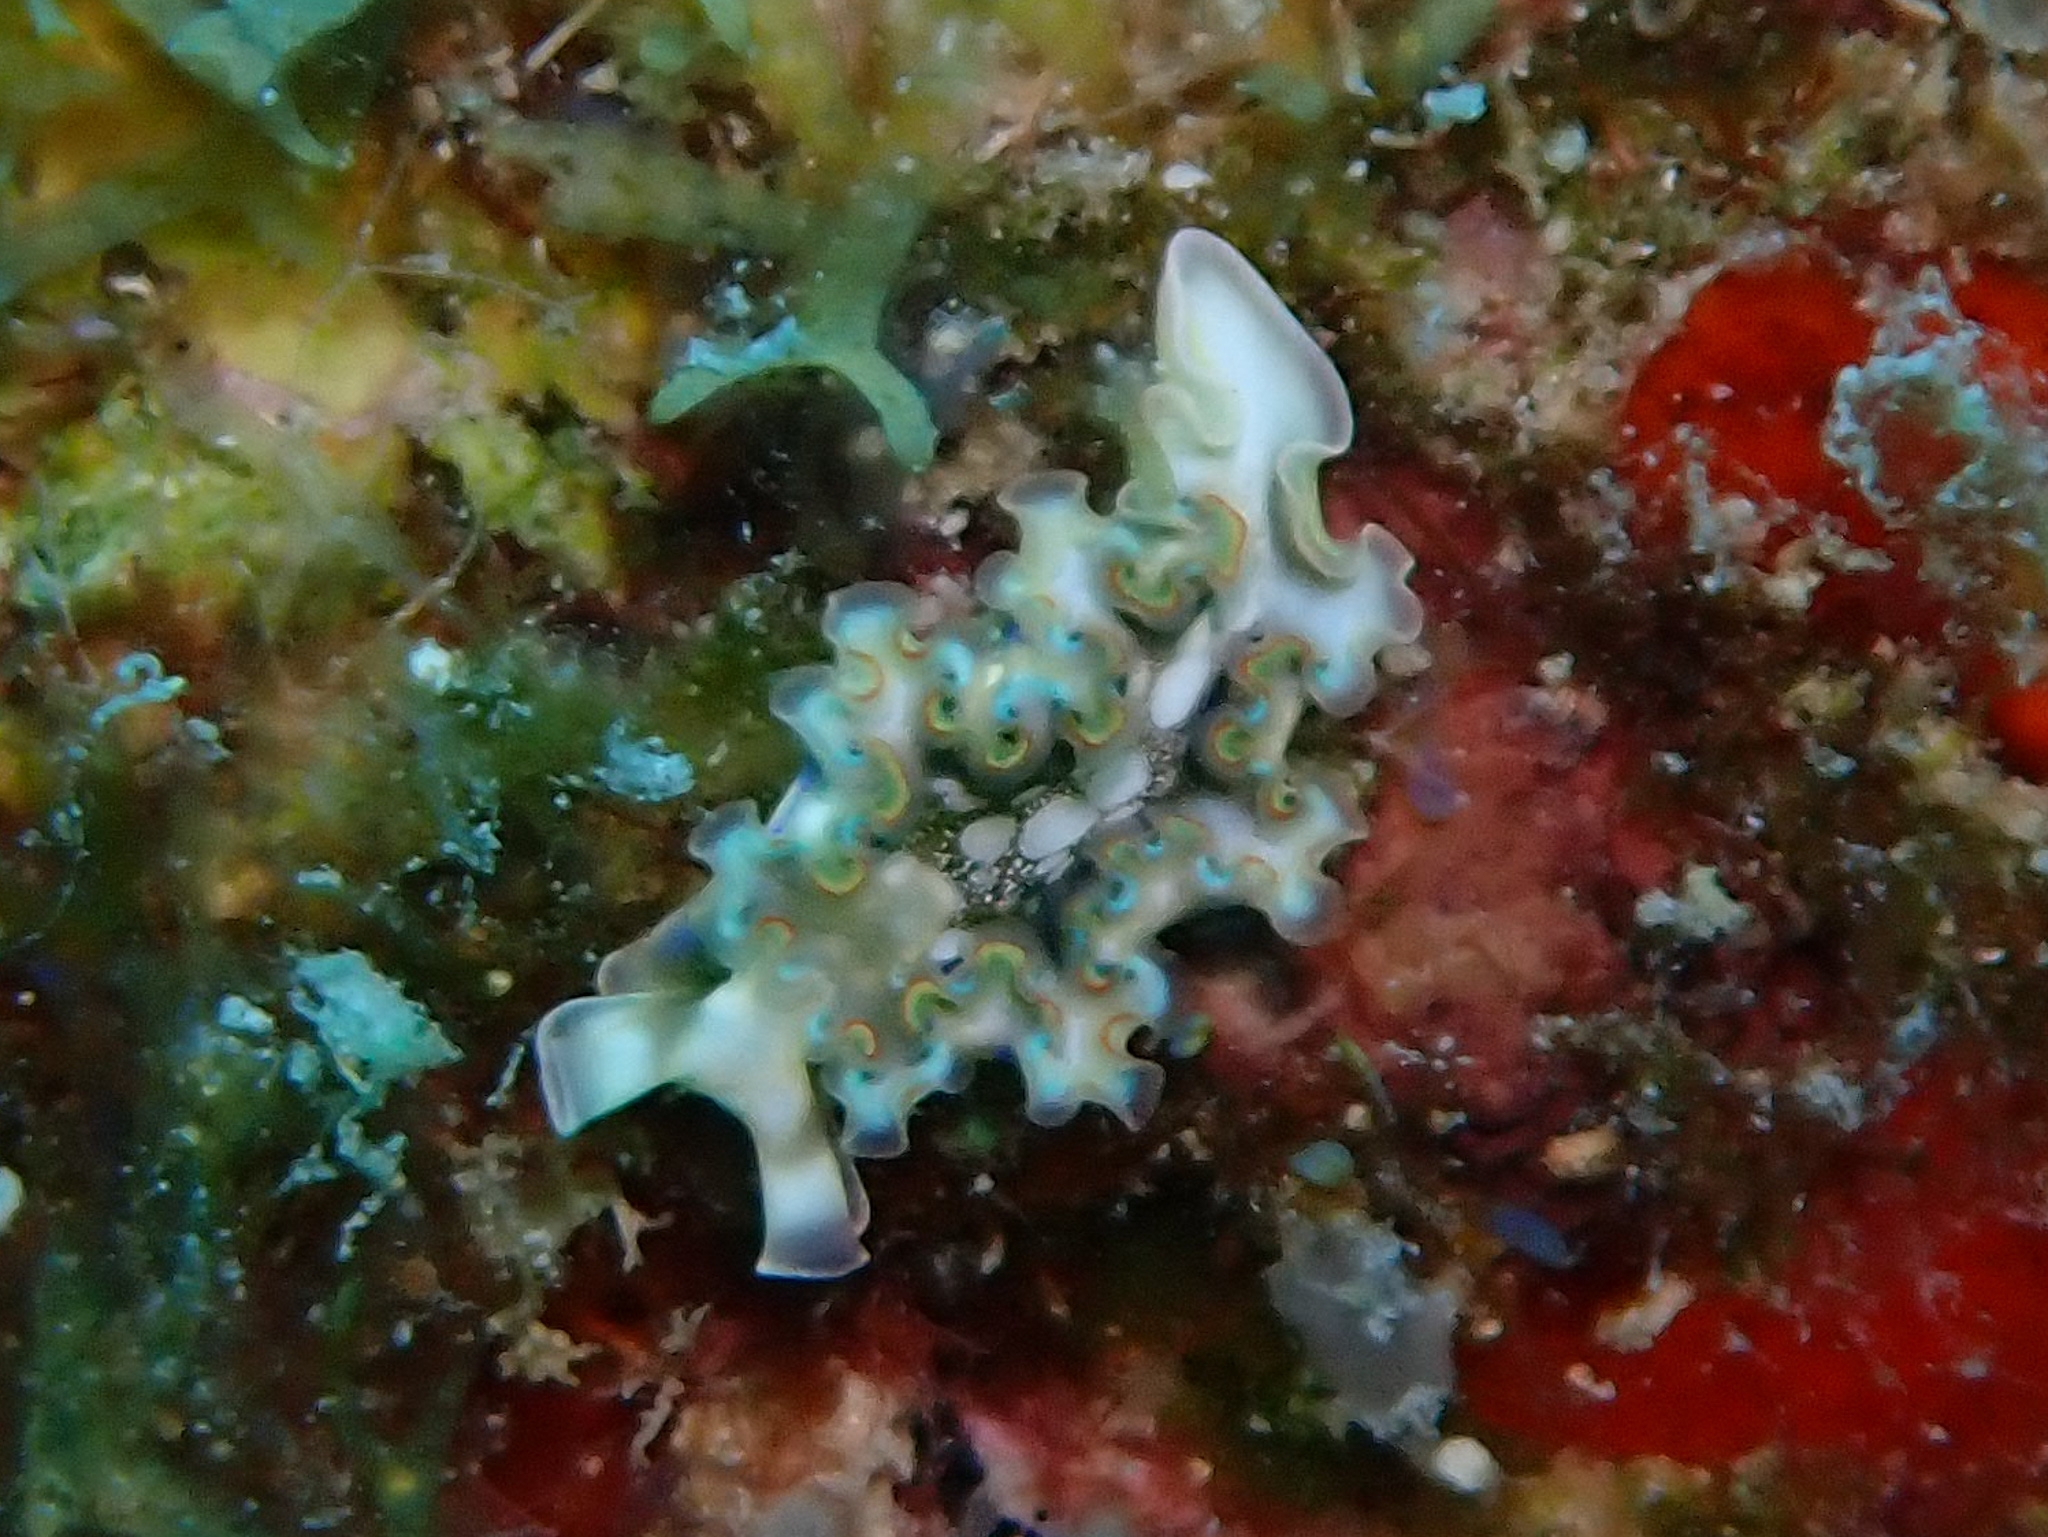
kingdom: Animalia
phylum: Mollusca
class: Gastropoda
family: Plakobranchidae
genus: Elysia
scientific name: Elysia crispata
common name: Lettuce slug
